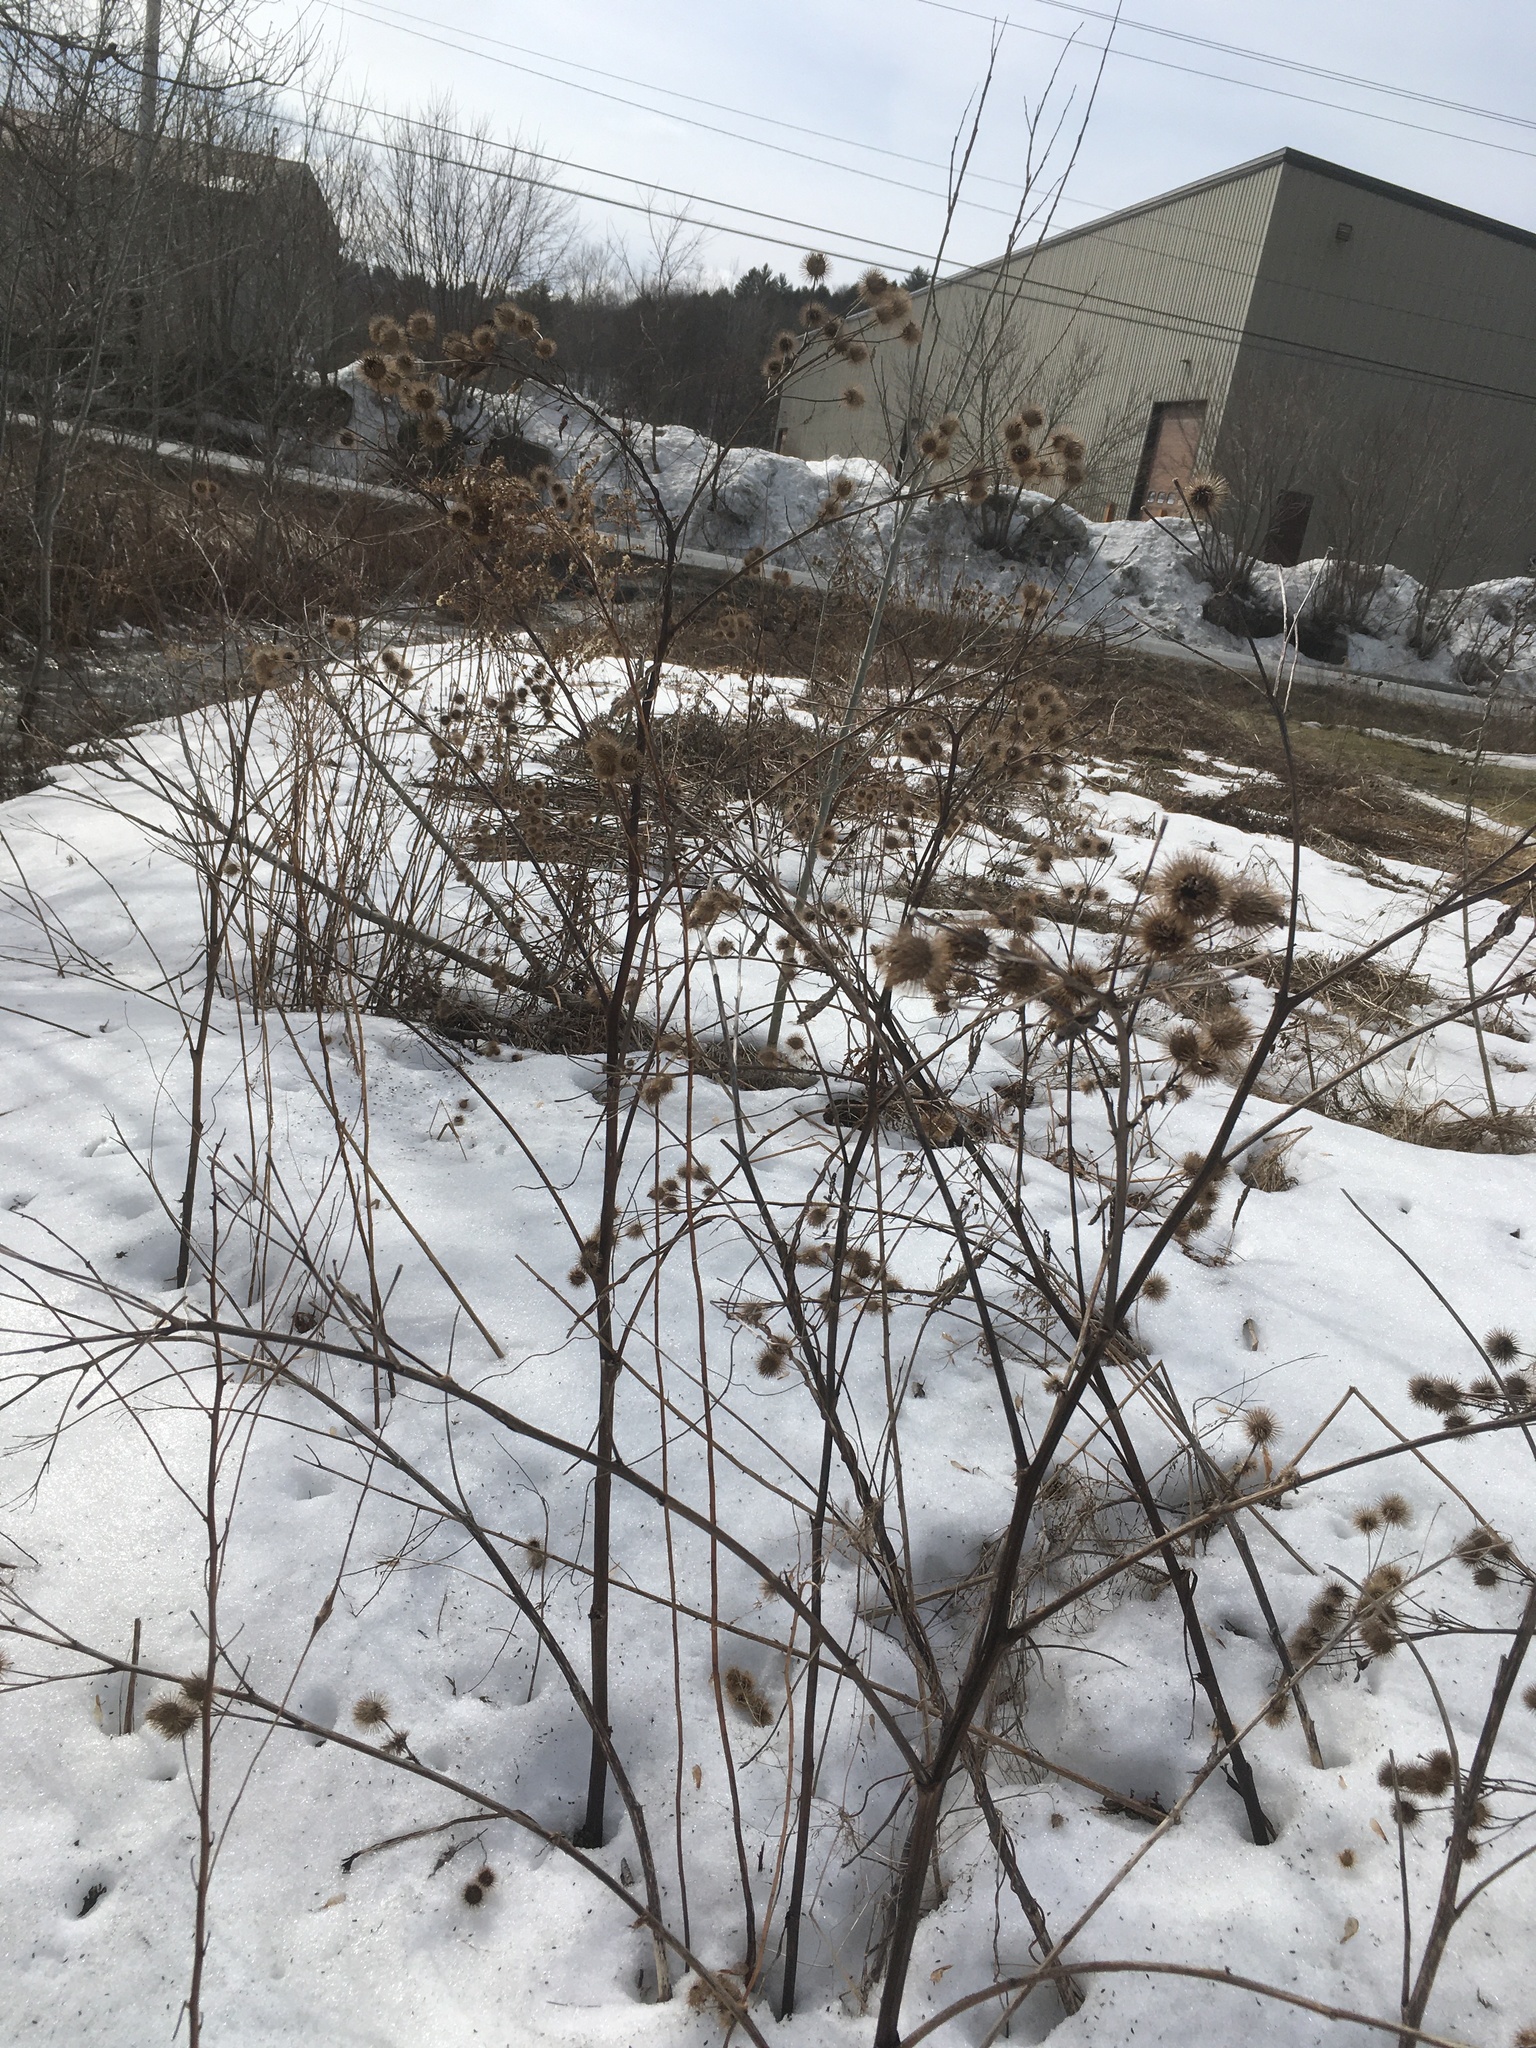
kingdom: Plantae
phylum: Tracheophyta
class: Magnoliopsida
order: Asterales
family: Asteraceae
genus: Arctium
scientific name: Arctium lappa
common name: Greater burdock
